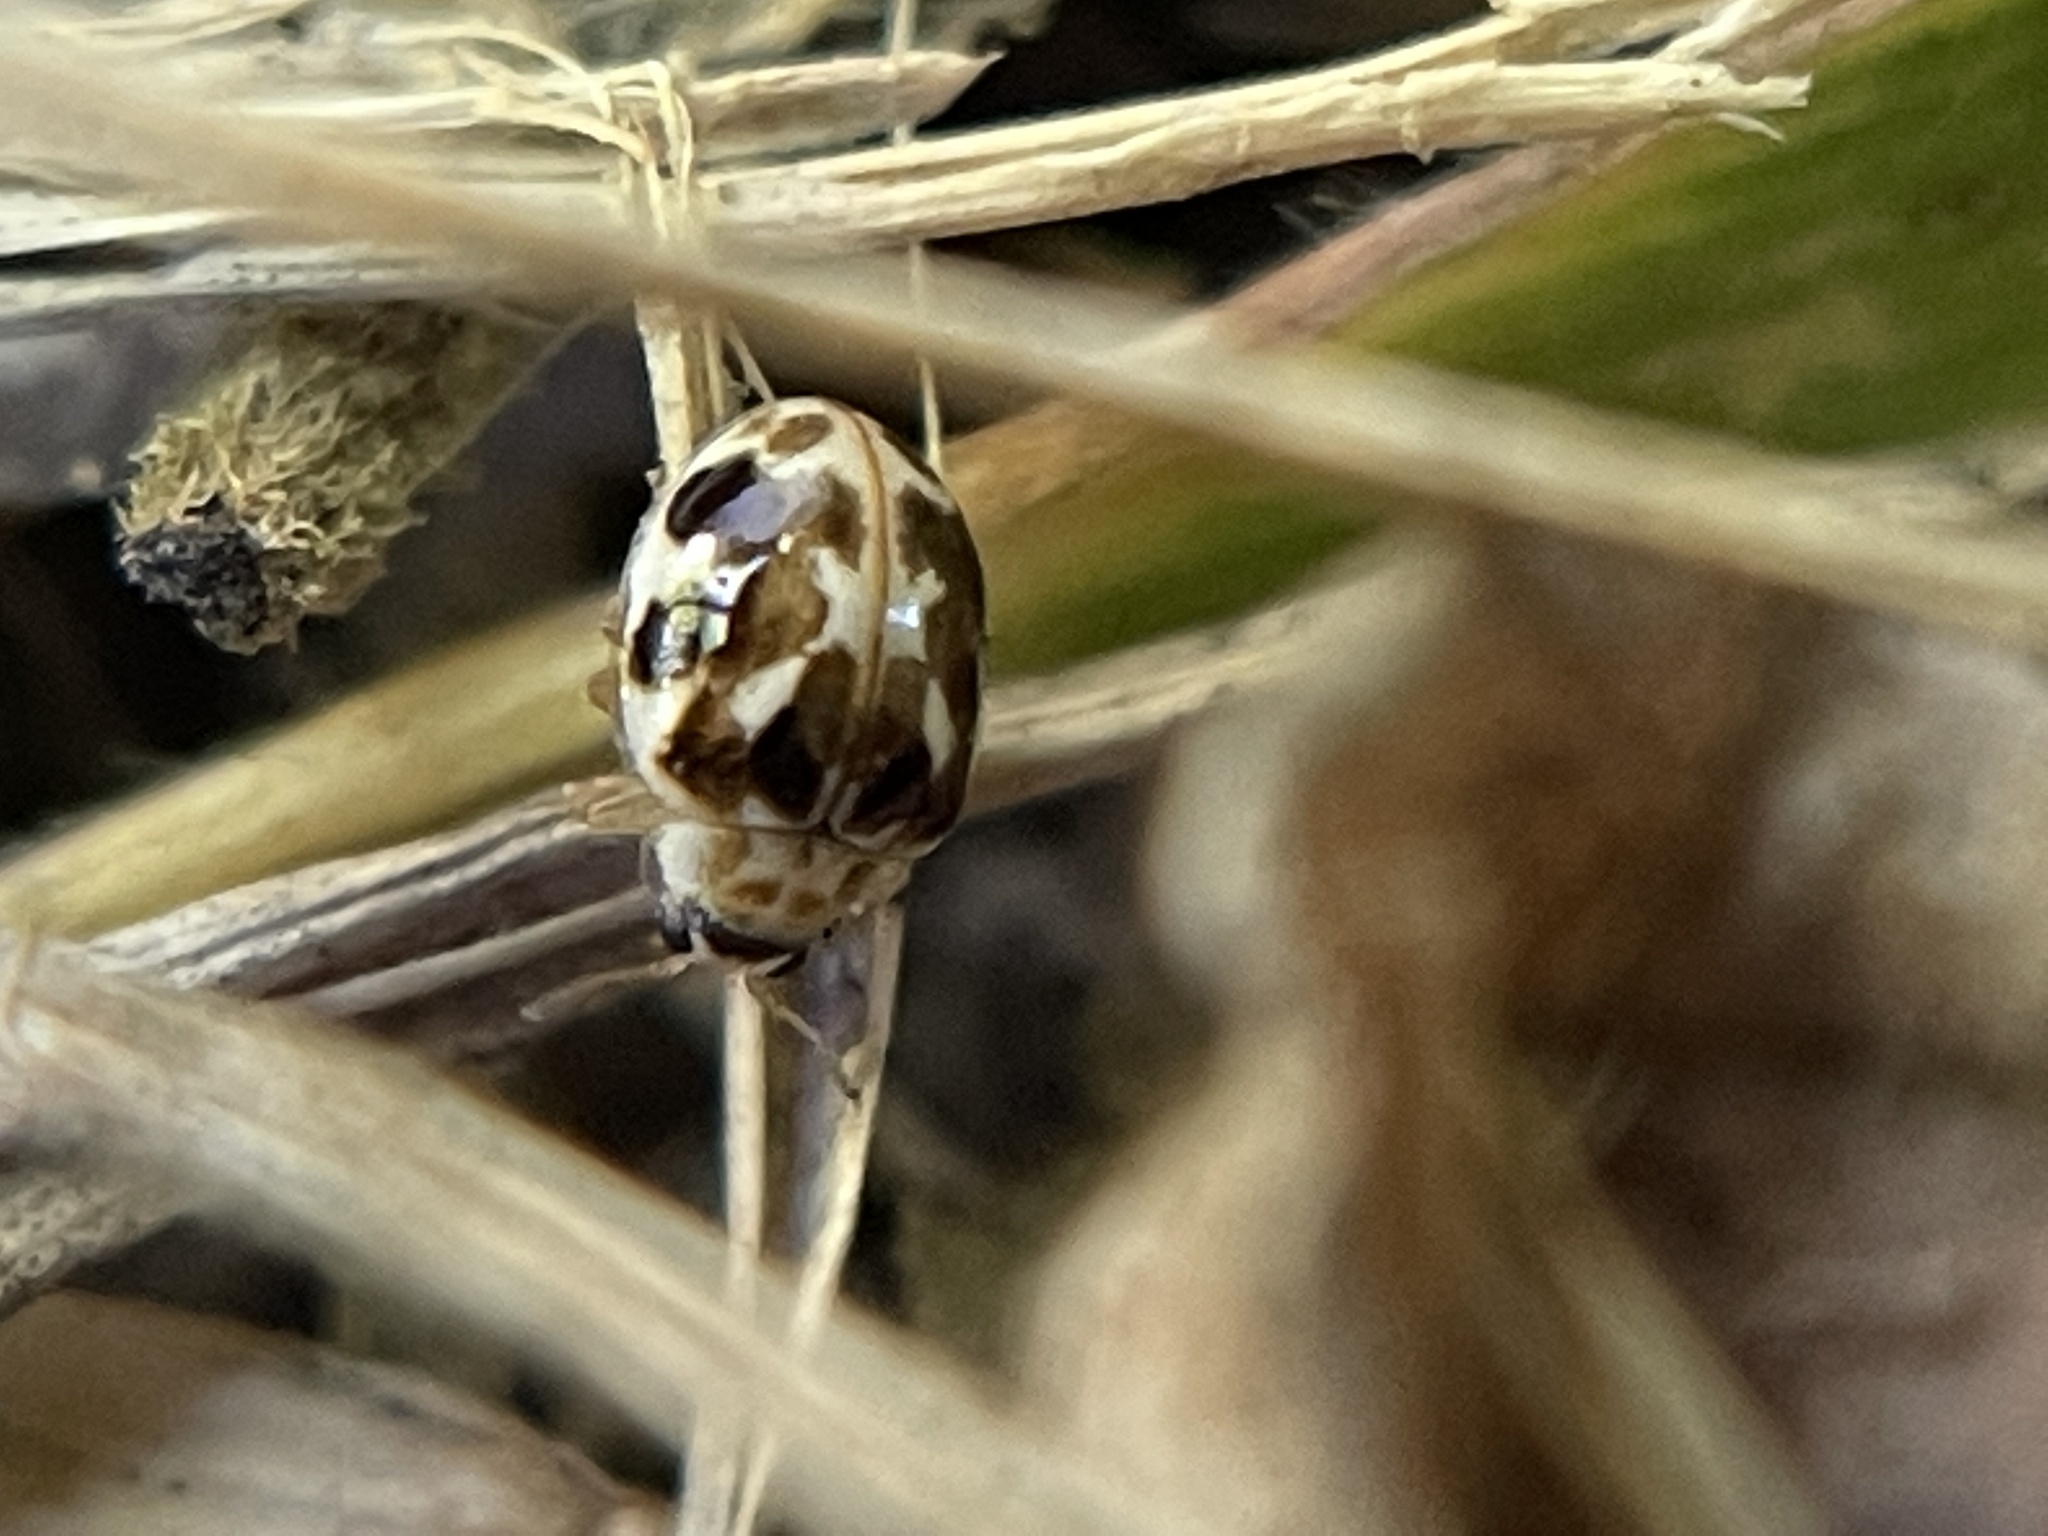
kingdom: Animalia
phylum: Arthropoda
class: Insecta
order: Coleoptera
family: Coccinellidae
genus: Psyllobora
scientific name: Psyllobora vigintimaculata
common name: Ladybird beetle
